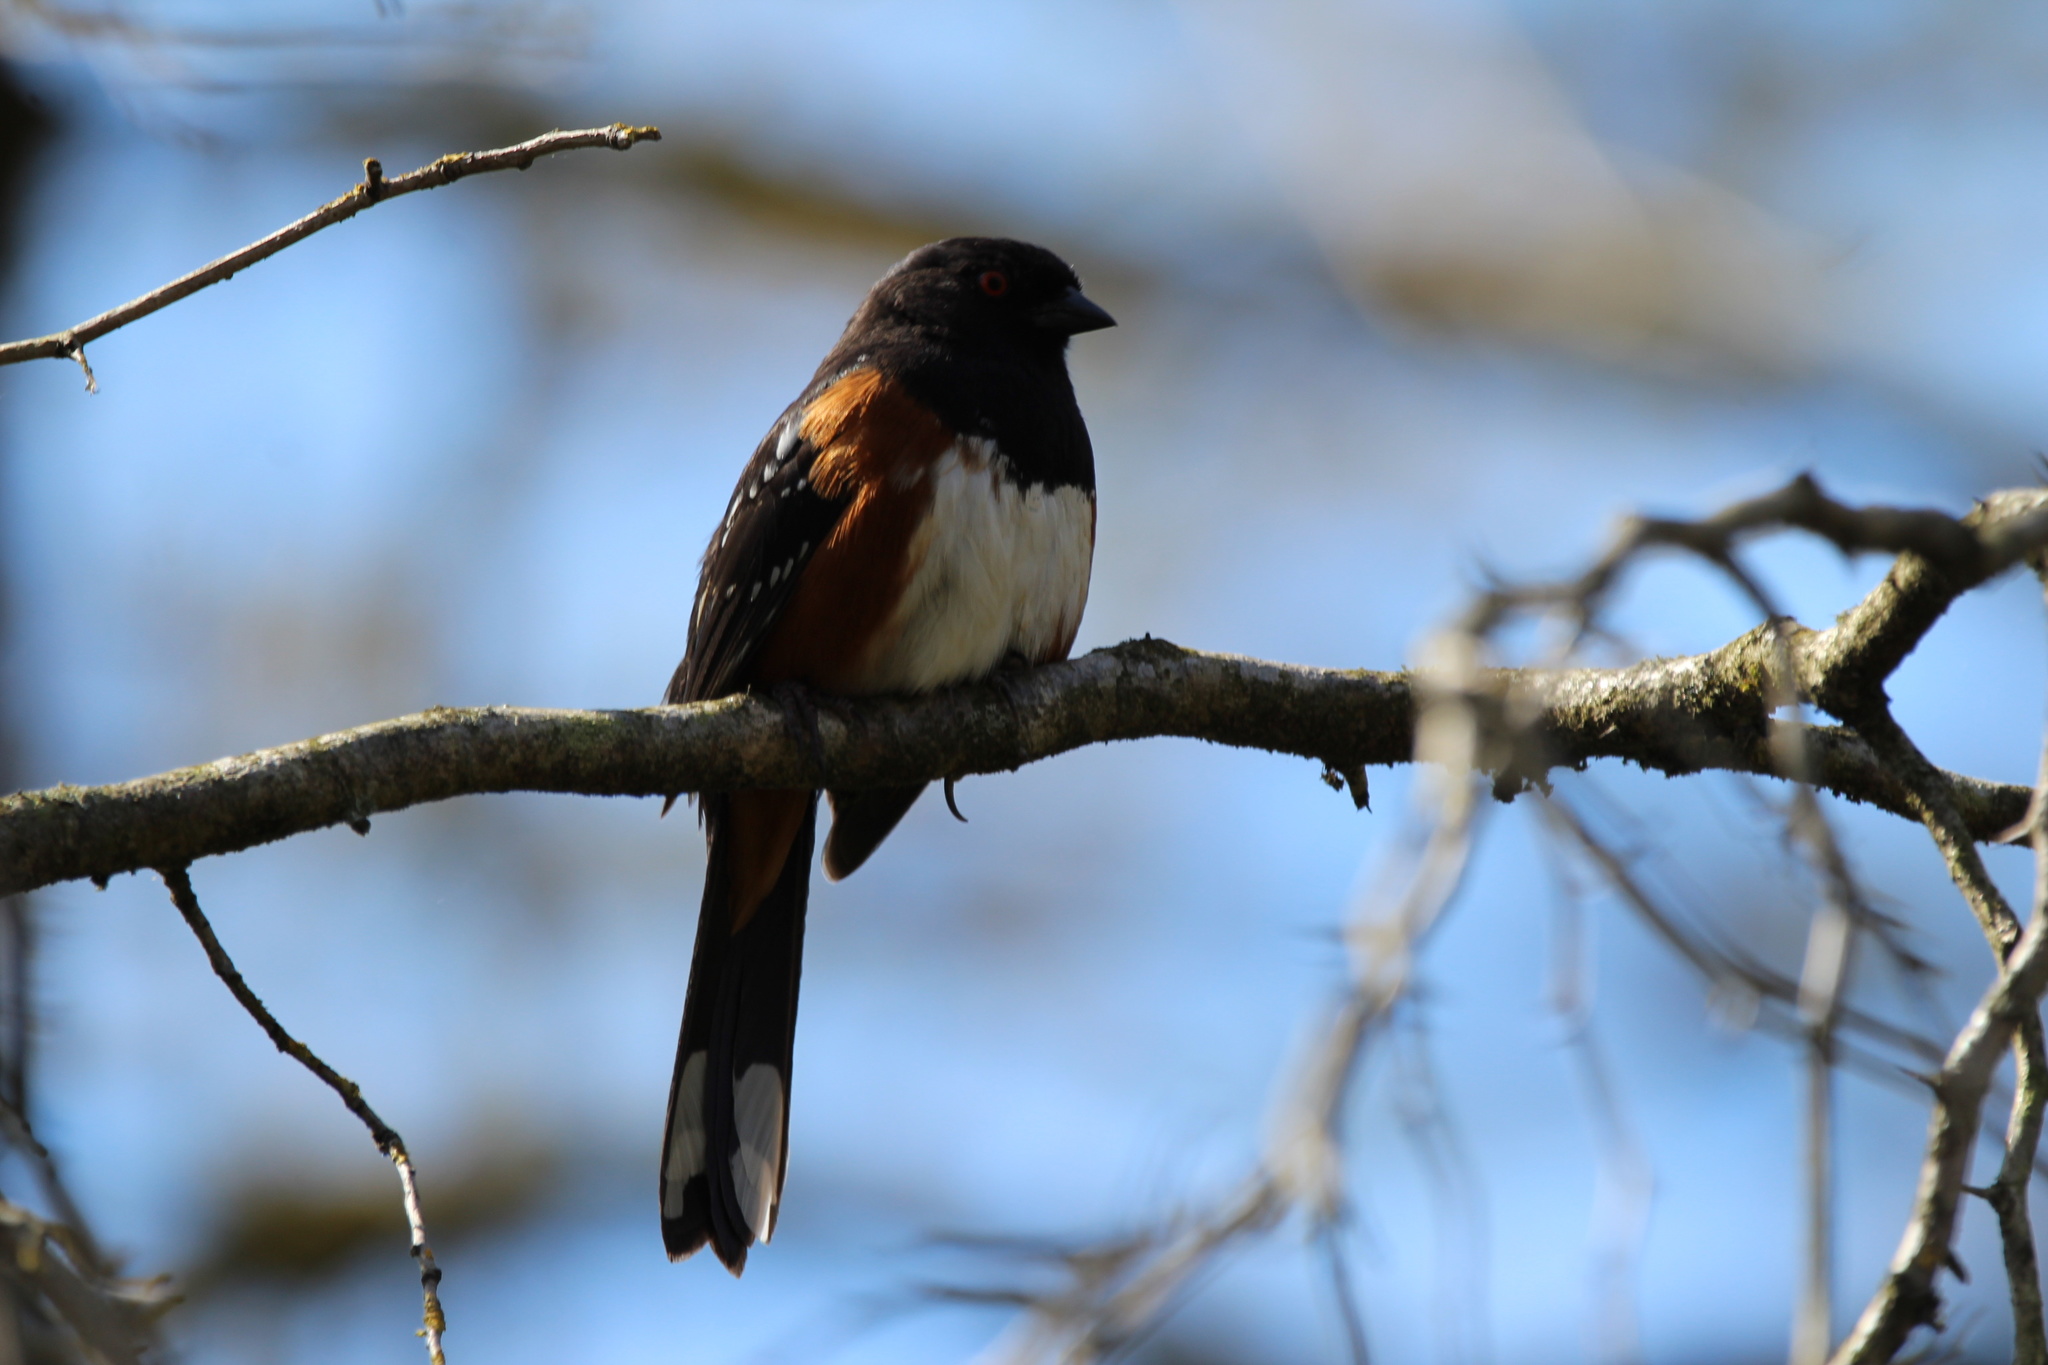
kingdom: Animalia
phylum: Chordata
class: Aves
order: Passeriformes
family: Passerellidae
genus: Pipilo
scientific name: Pipilo maculatus
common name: Spotted towhee
